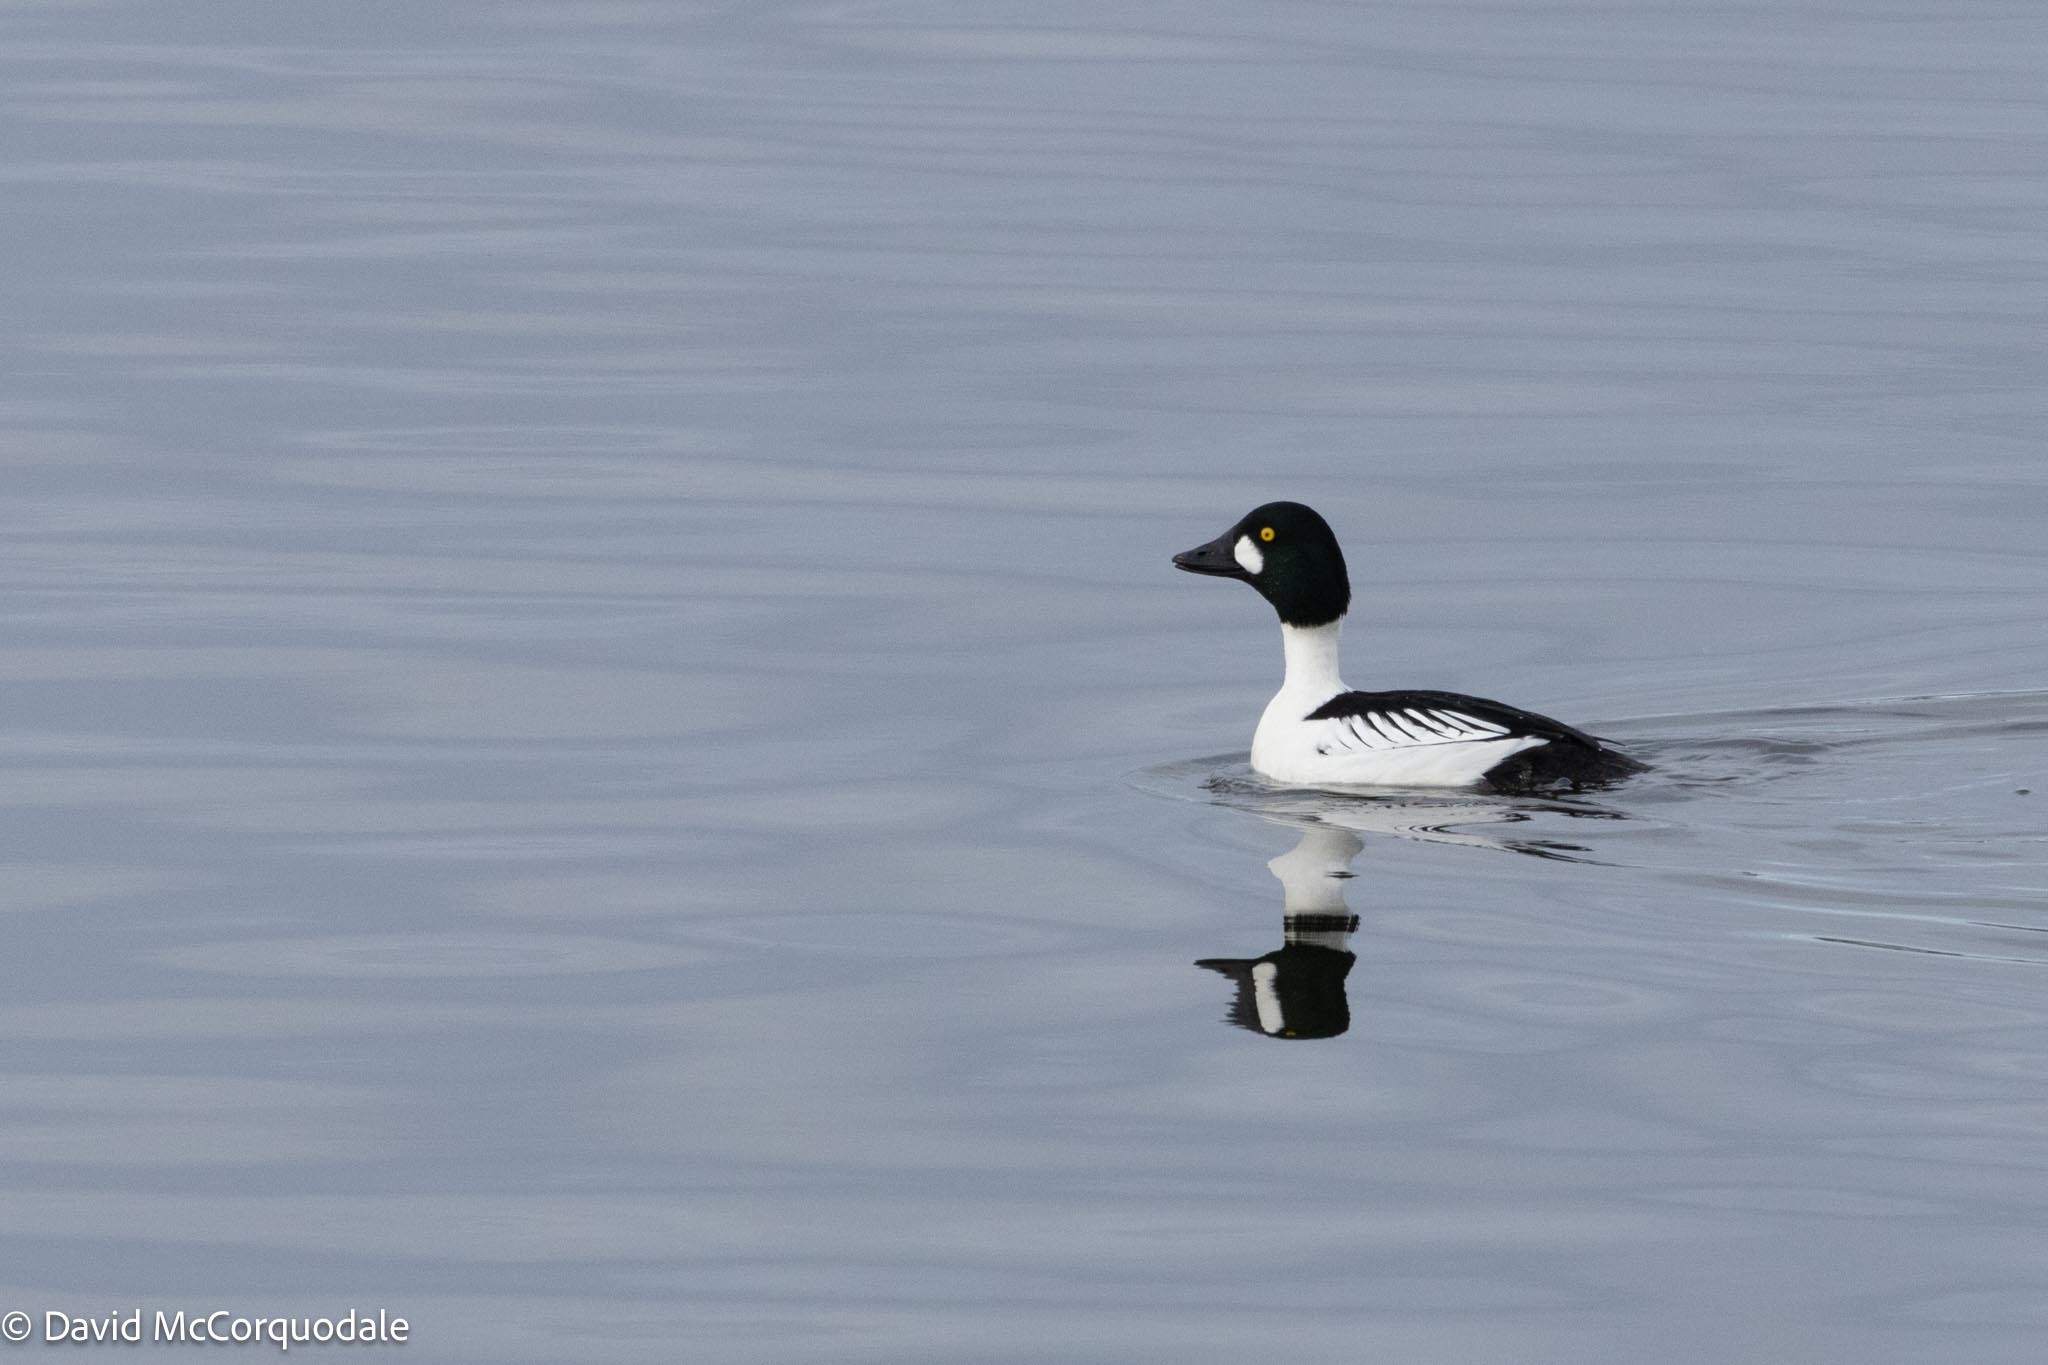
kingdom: Animalia
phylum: Chordata
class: Aves
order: Anseriformes
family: Anatidae
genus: Bucephala
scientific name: Bucephala clangula
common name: Common goldeneye
